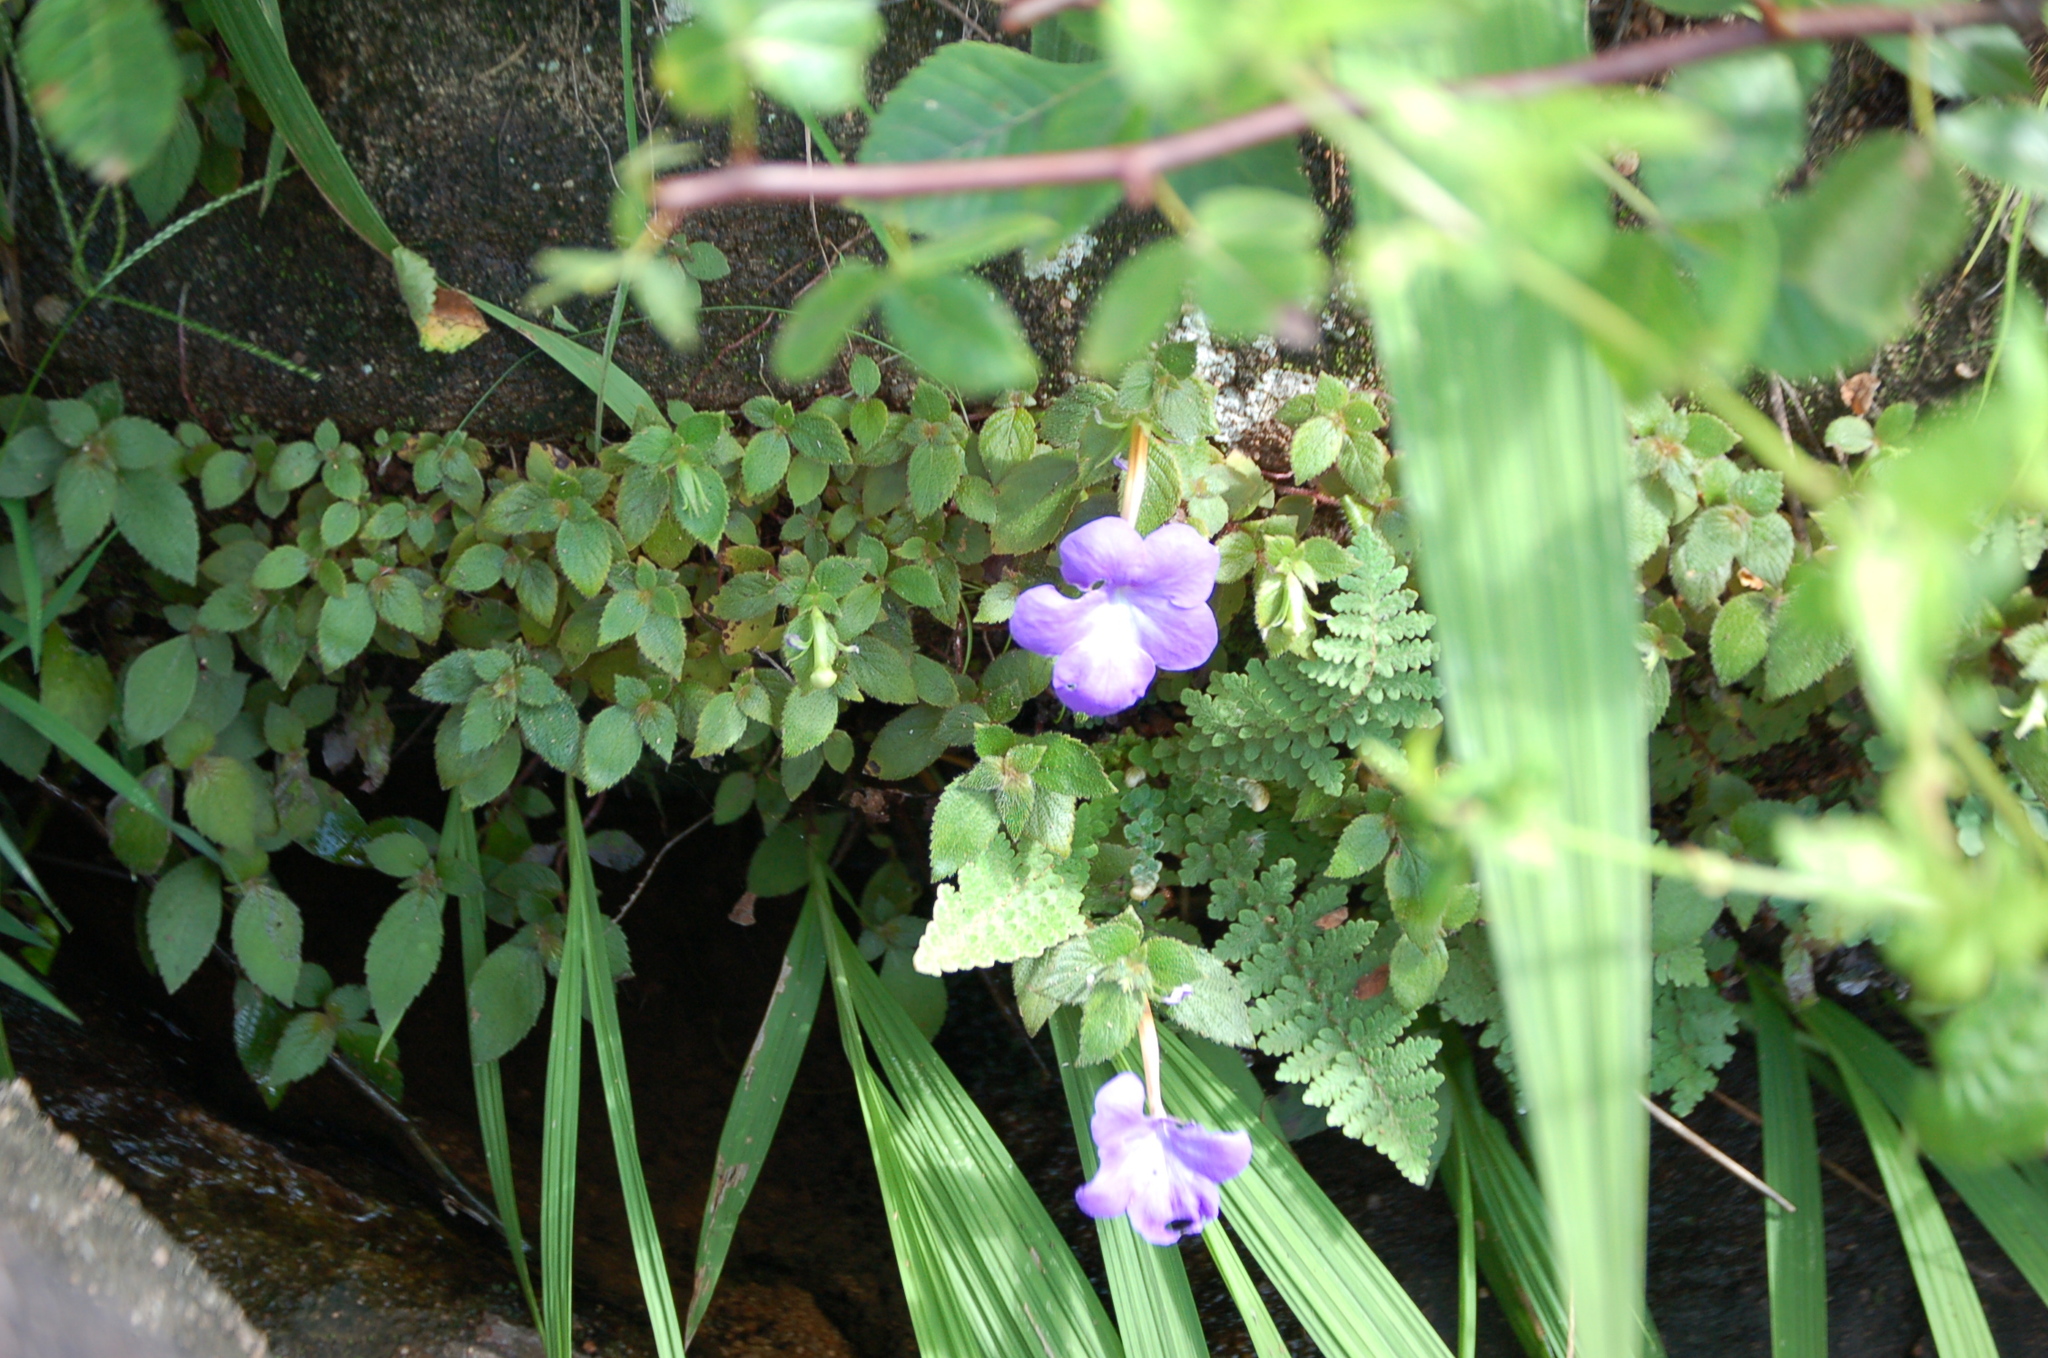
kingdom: Plantae
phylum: Tracheophyta
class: Magnoliopsida
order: Lamiales
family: Gesneriaceae
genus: Achimenes
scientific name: Achimenes longiflora
